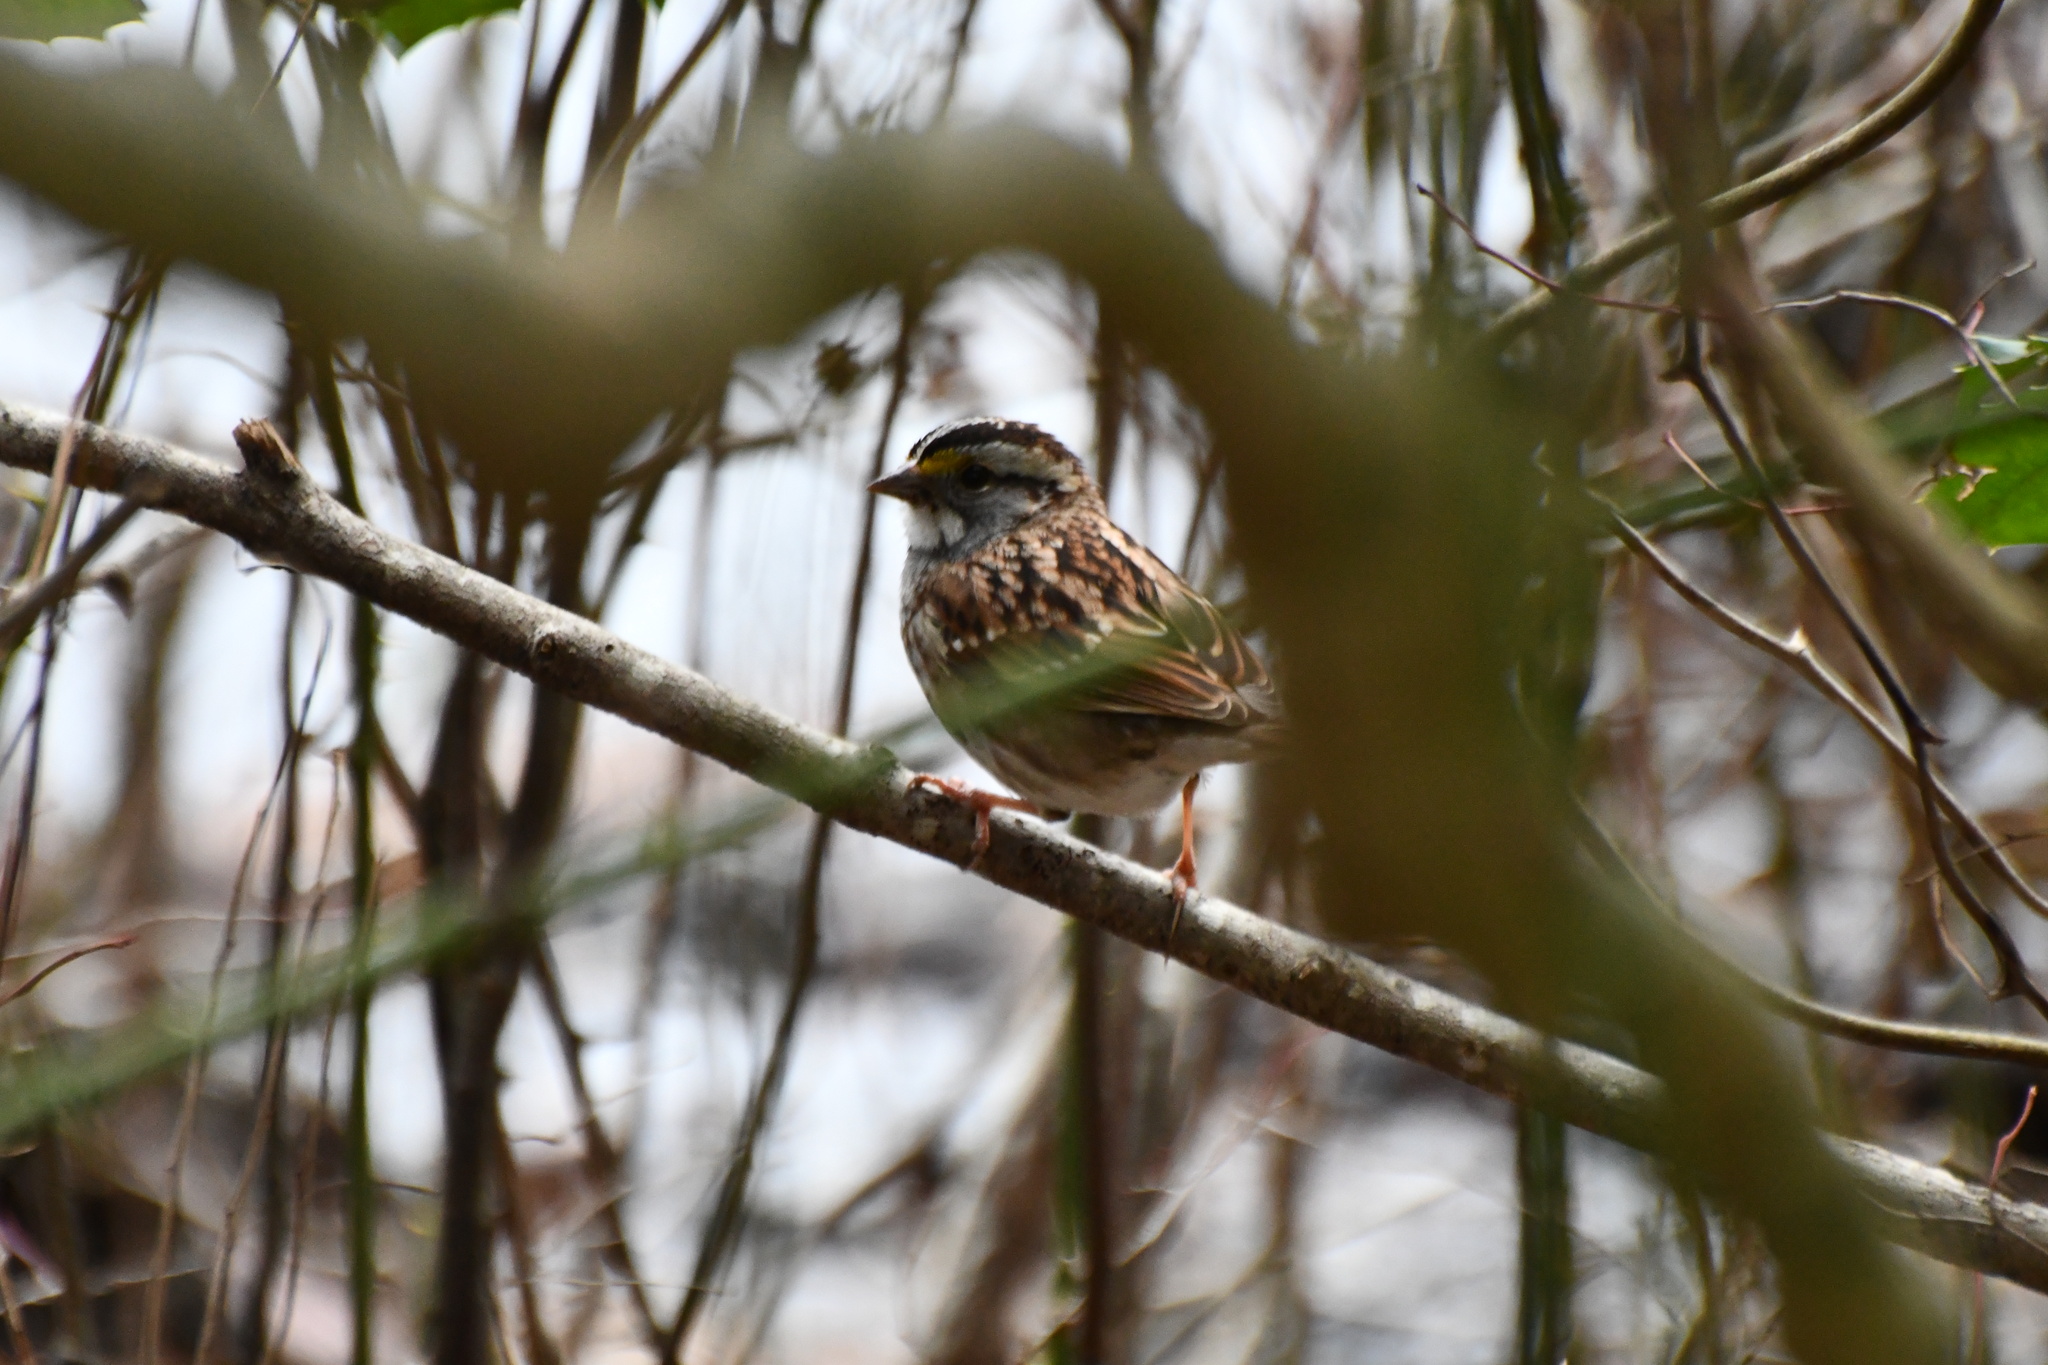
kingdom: Animalia
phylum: Chordata
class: Aves
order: Passeriformes
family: Passerellidae
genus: Zonotrichia
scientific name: Zonotrichia albicollis
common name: White-throated sparrow
